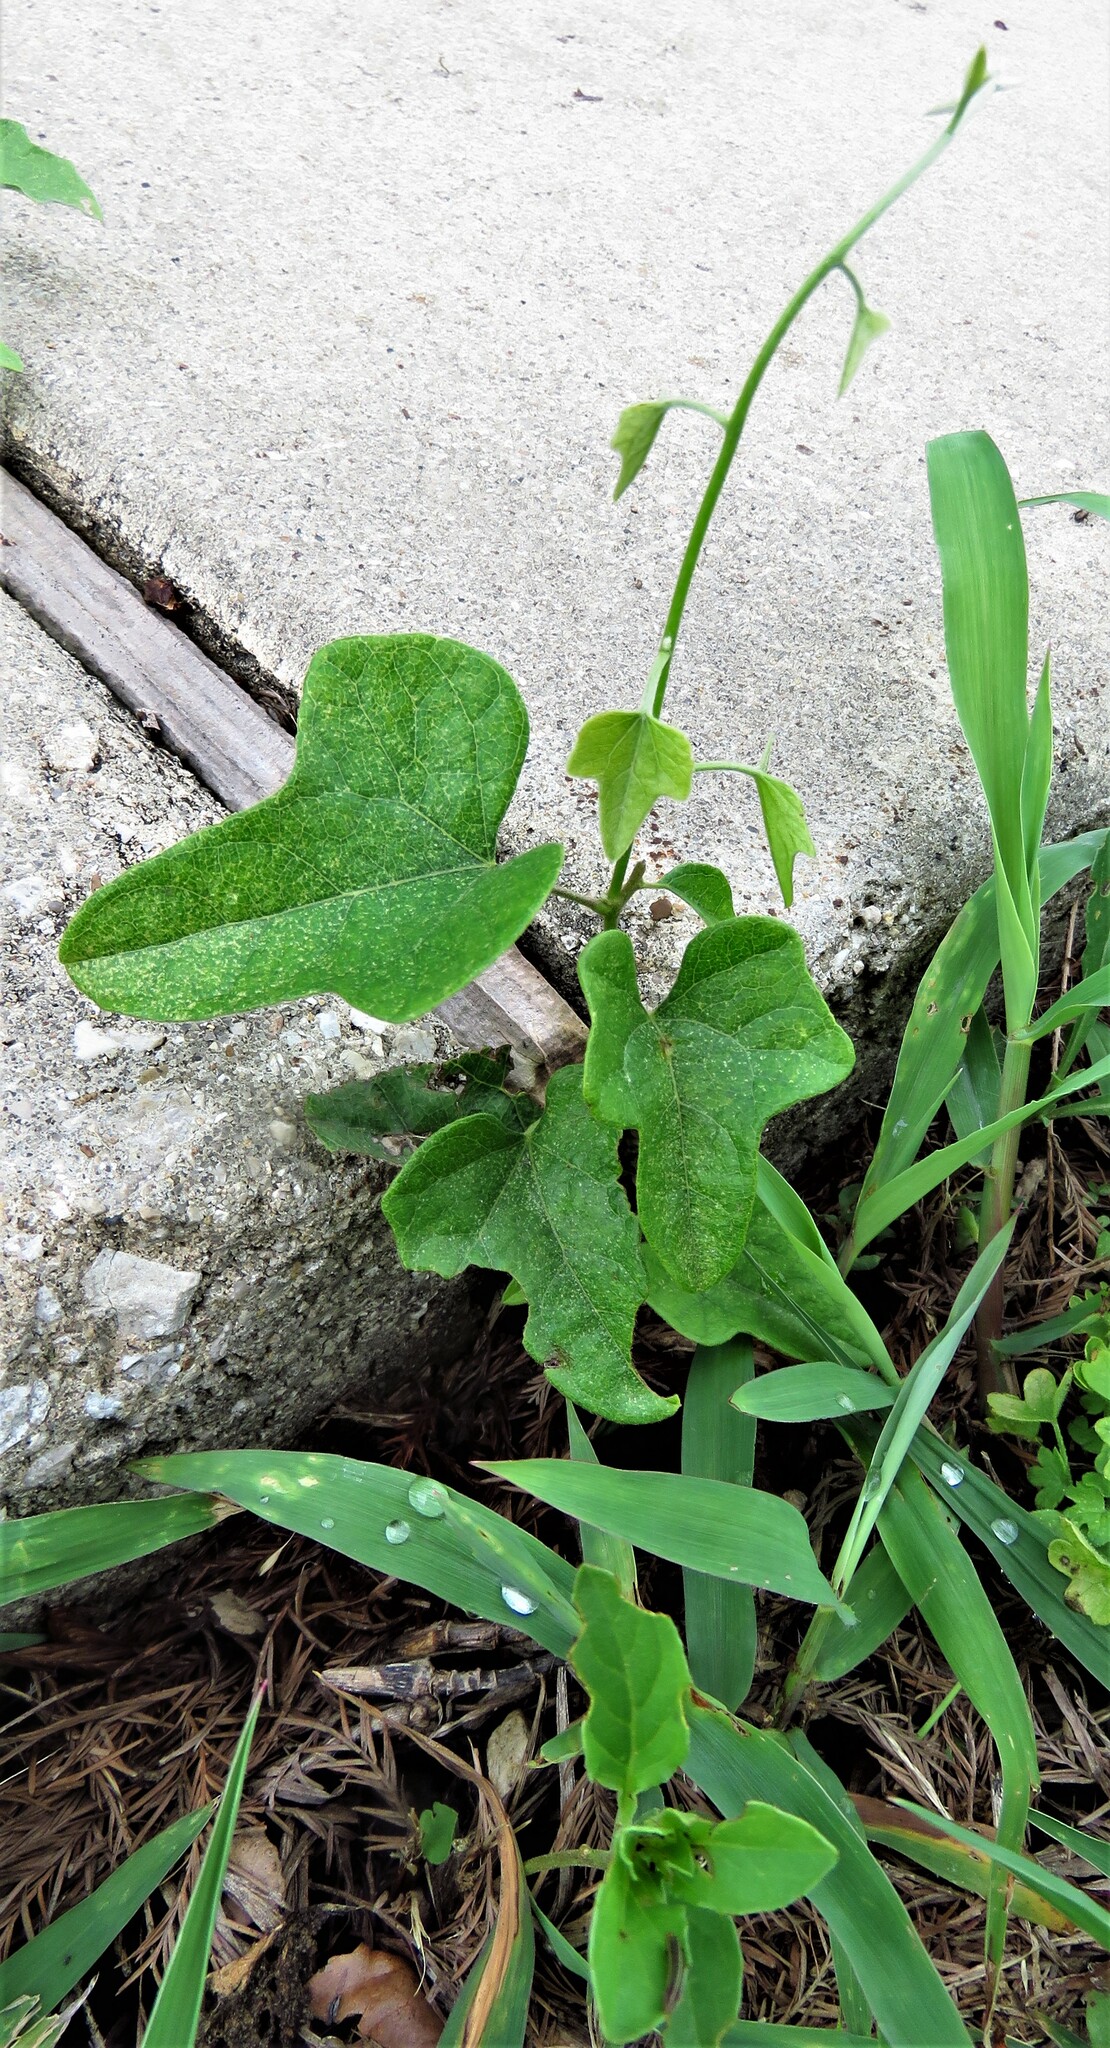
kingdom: Plantae
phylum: Tracheophyta
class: Magnoliopsida
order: Ranunculales
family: Menispermaceae
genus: Cocculus
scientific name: Cocculus carolinus
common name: Carolina moonseed
